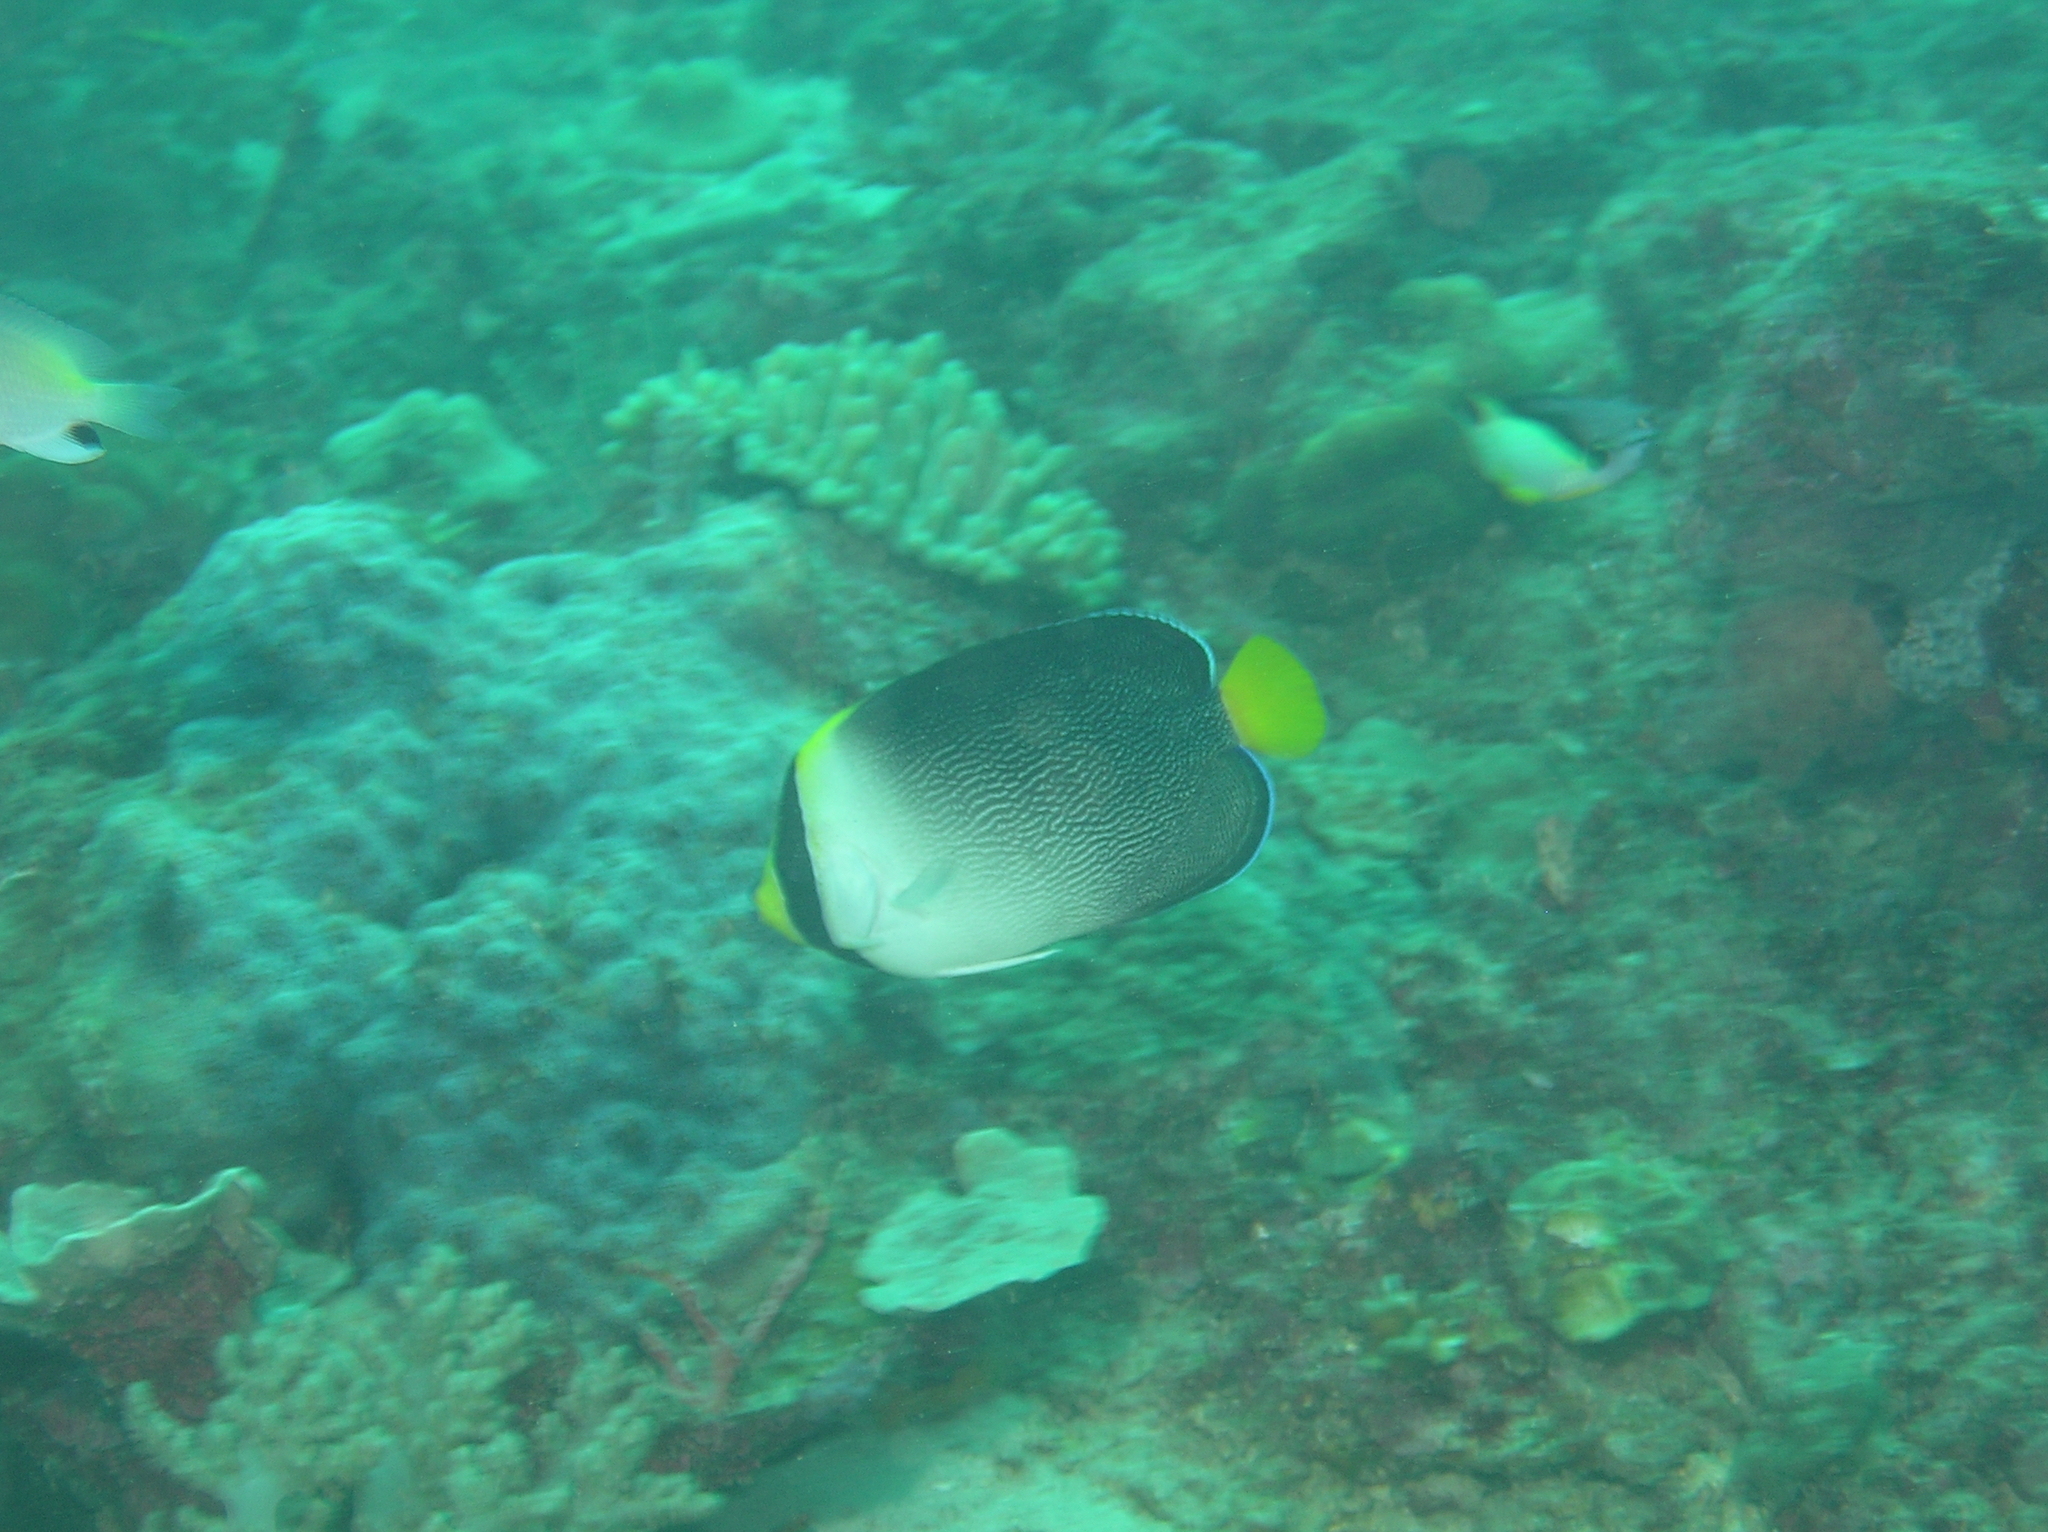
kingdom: Animalia
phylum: Chordata
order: Perciformes
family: Pomacanthidae
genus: Chaetodontoplus
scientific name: Chaetodontoplus mesoleucus
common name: Vermiculated angelfish
